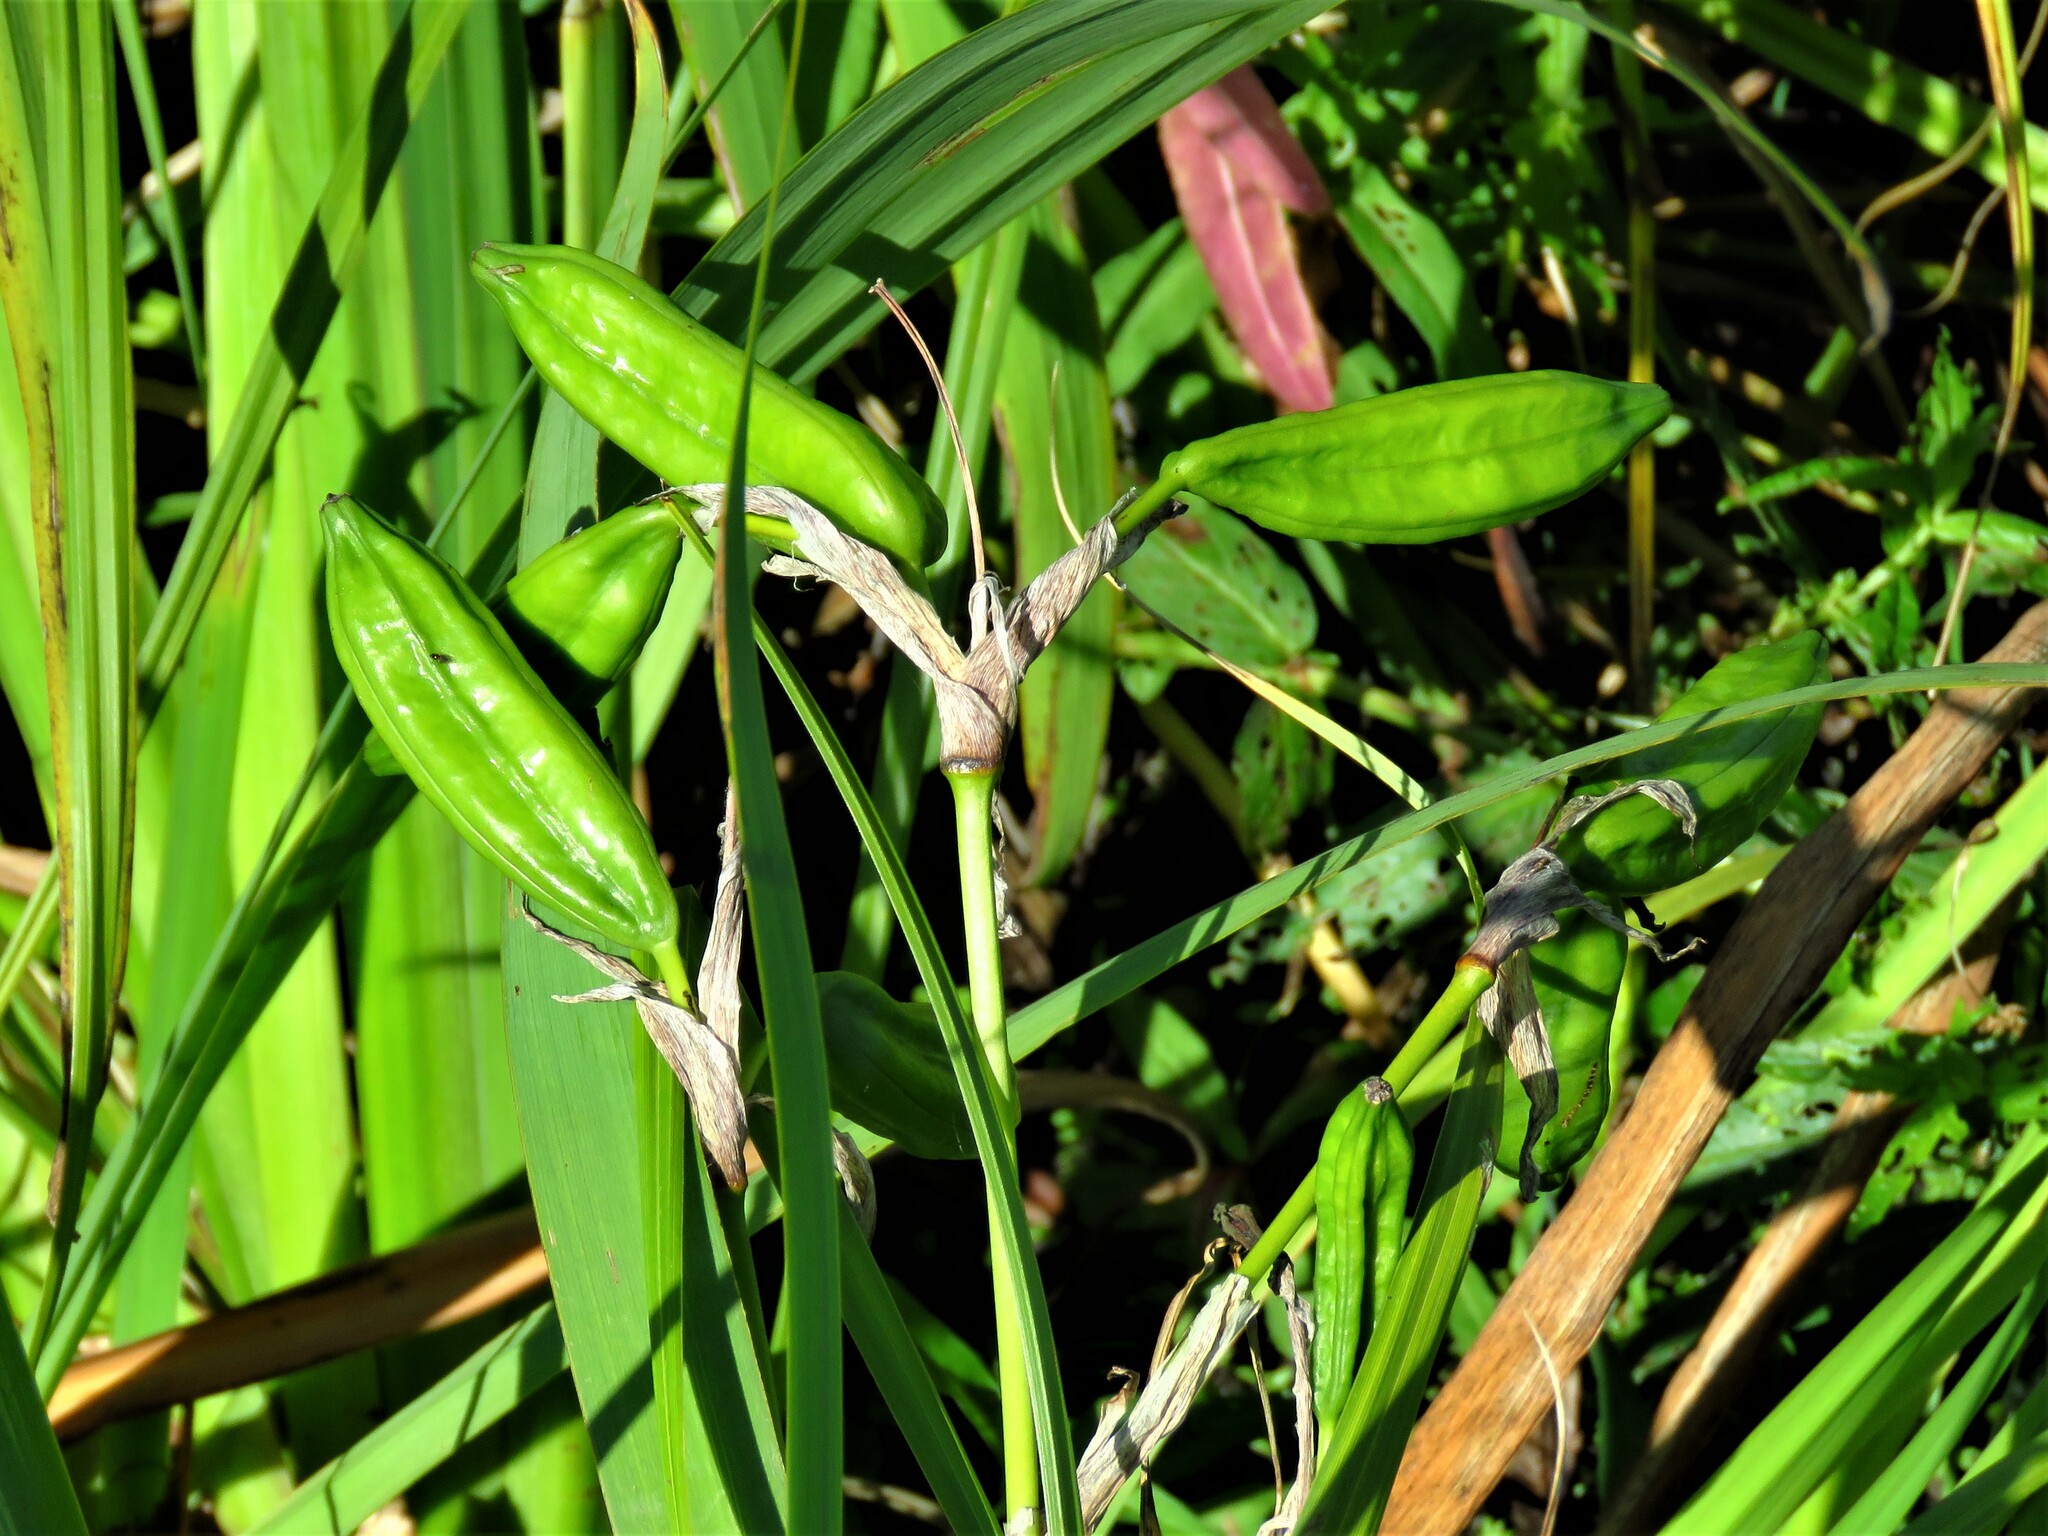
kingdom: Plantae
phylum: Tracheophyta
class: Liliopsida
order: Asparagales
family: Iridaceae
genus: Iris
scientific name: Iris pseudacorus
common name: Yellow flag
